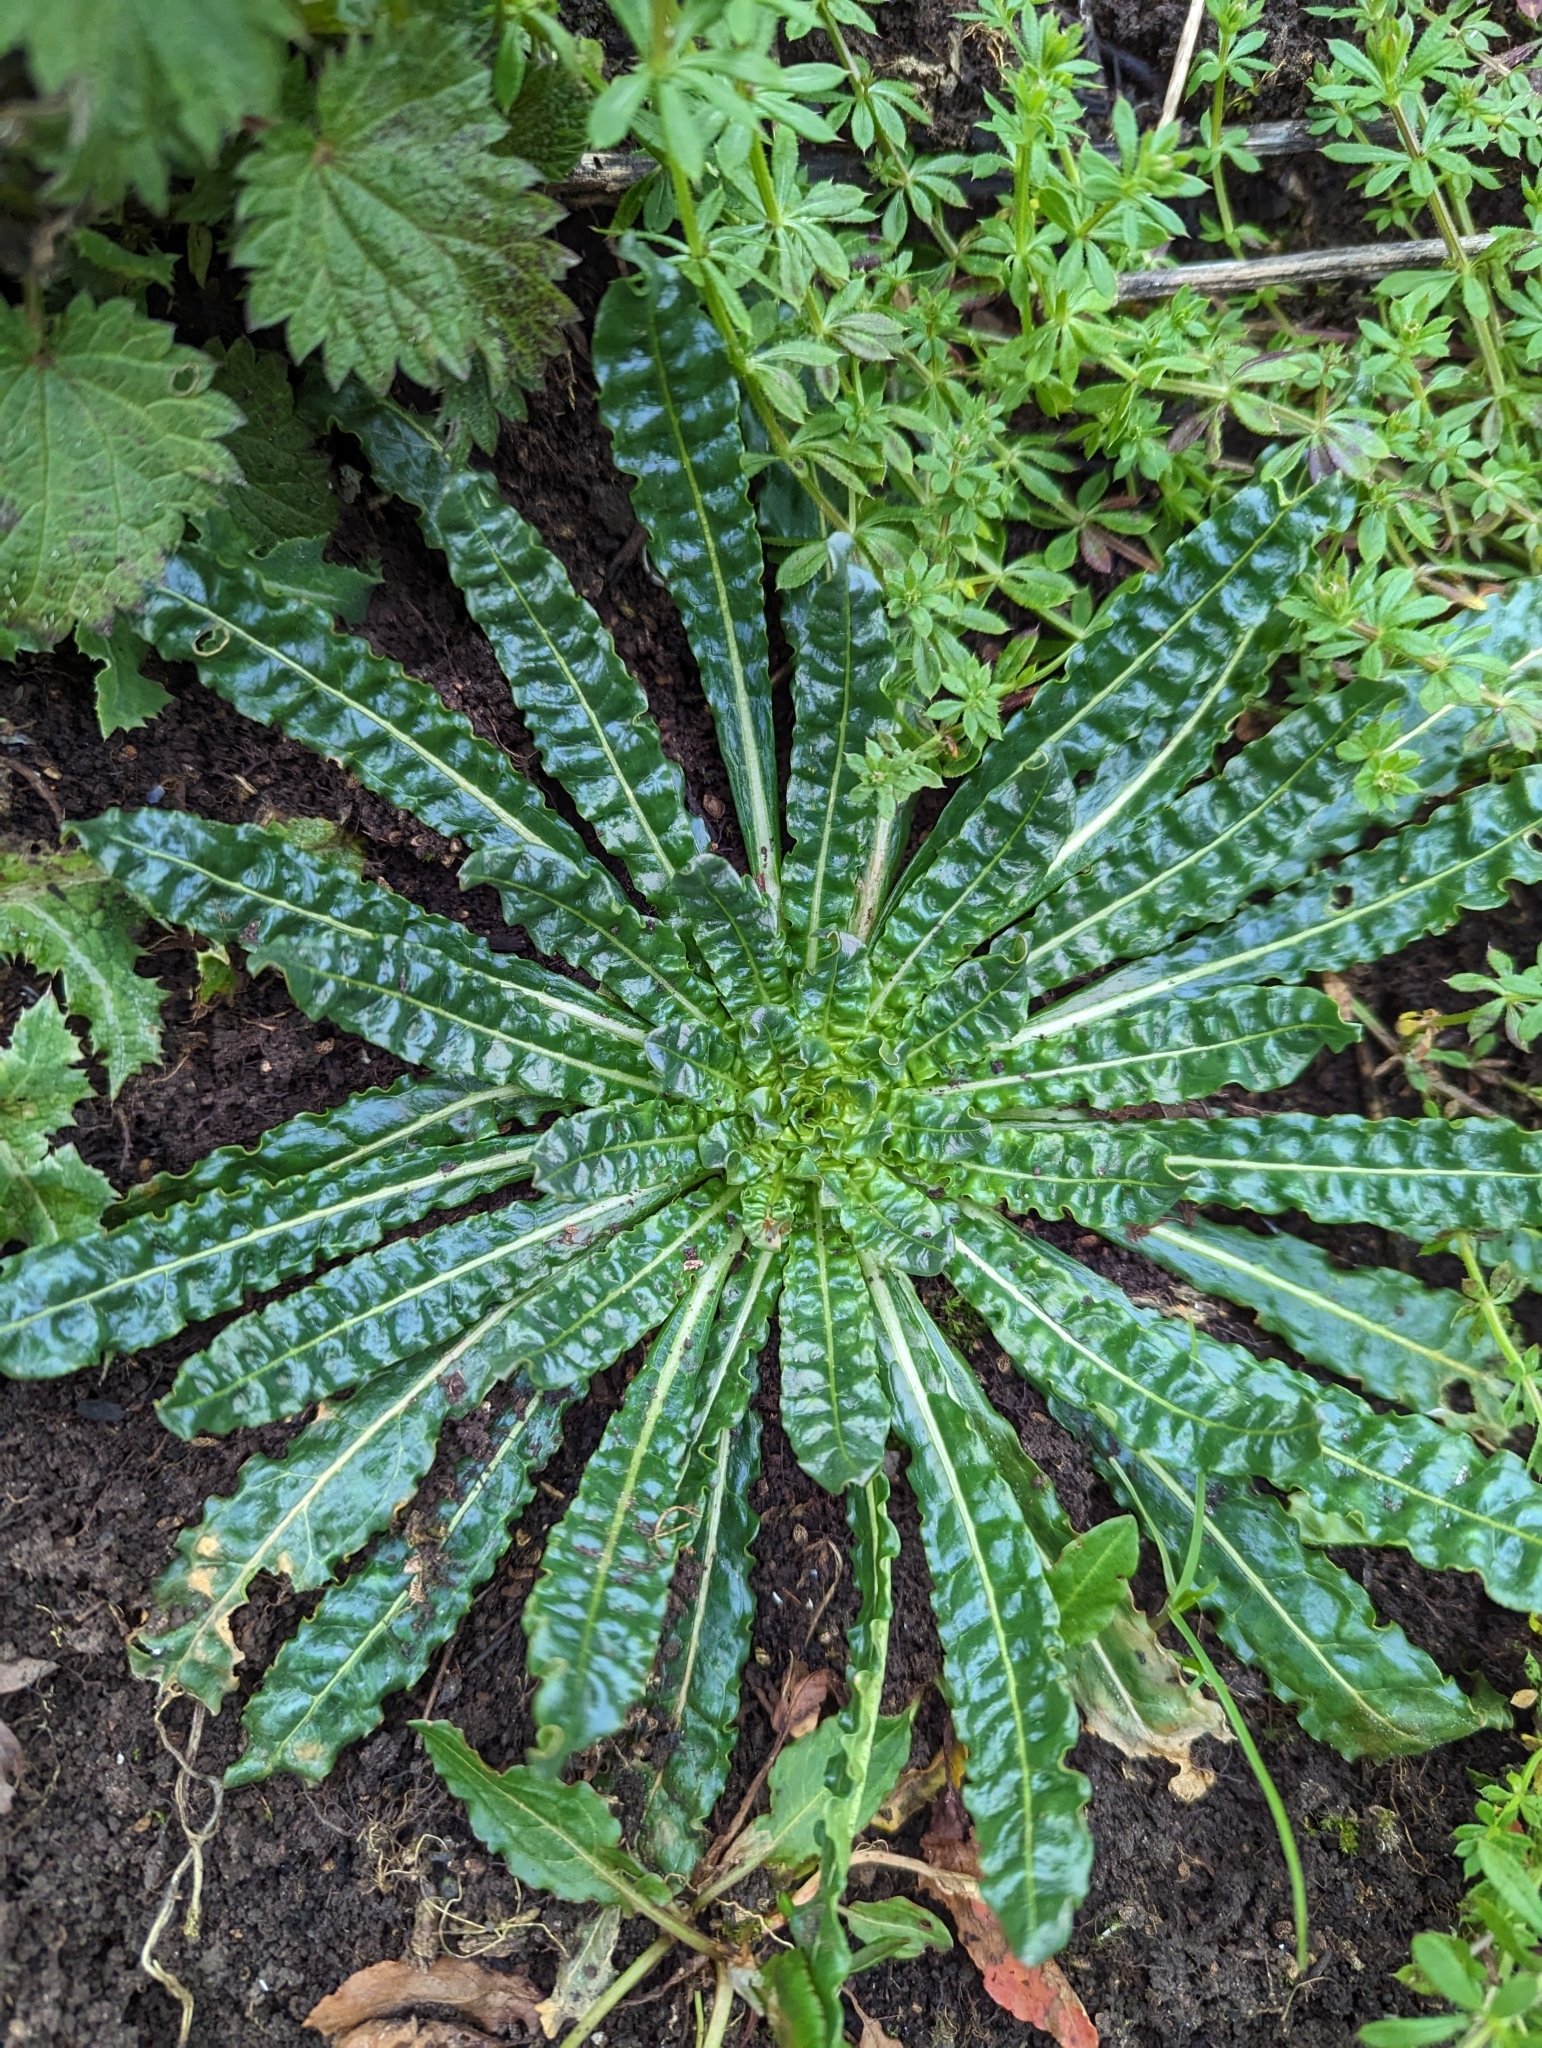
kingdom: Plantae
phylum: Tracheophyta
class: Magnoliopsida
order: Brassicales
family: Resedaceae
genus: Reseda
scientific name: Reseda luteola
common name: Weld
